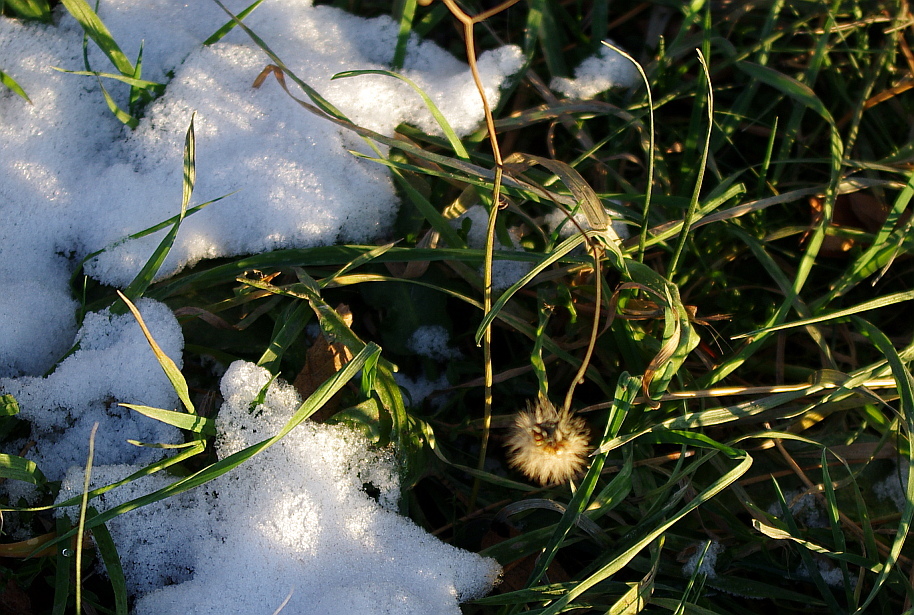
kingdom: Plantae
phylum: Tracheophyta
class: Magnoliopsida
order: Asterales
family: Asteraceae
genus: Scorzoneroides
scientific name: Scorzoneroides autumnalis
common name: Autumn hawkbit
